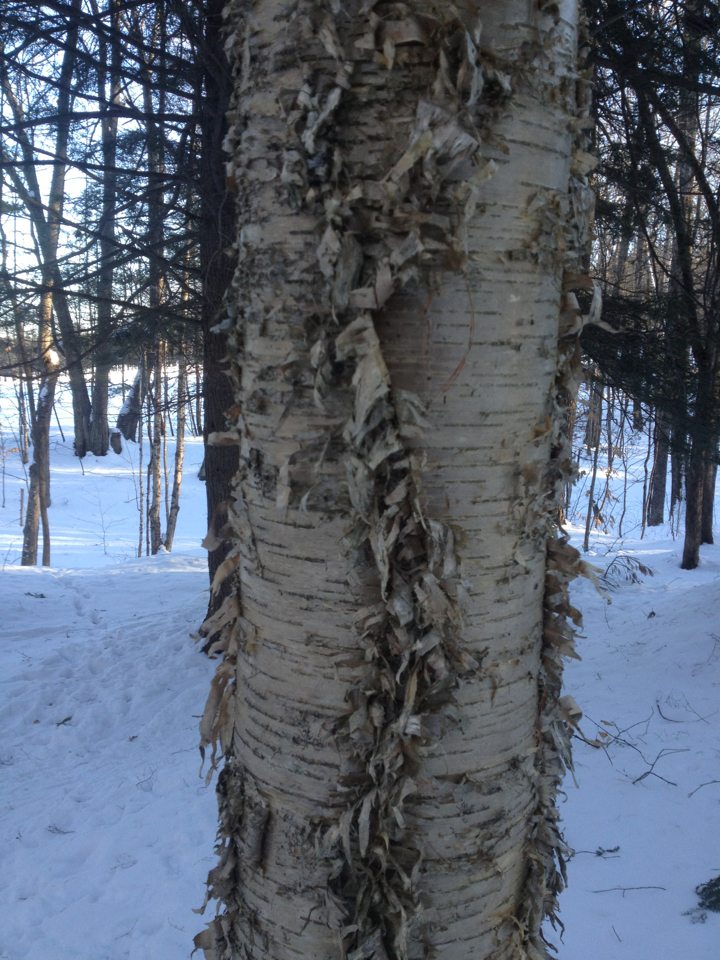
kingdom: Plantae
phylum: Tracheophyta
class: Magnoliopsida
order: Fagales
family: Betulaceae
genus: Betula
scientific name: Betula alleghaniensis
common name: Yellow birch
